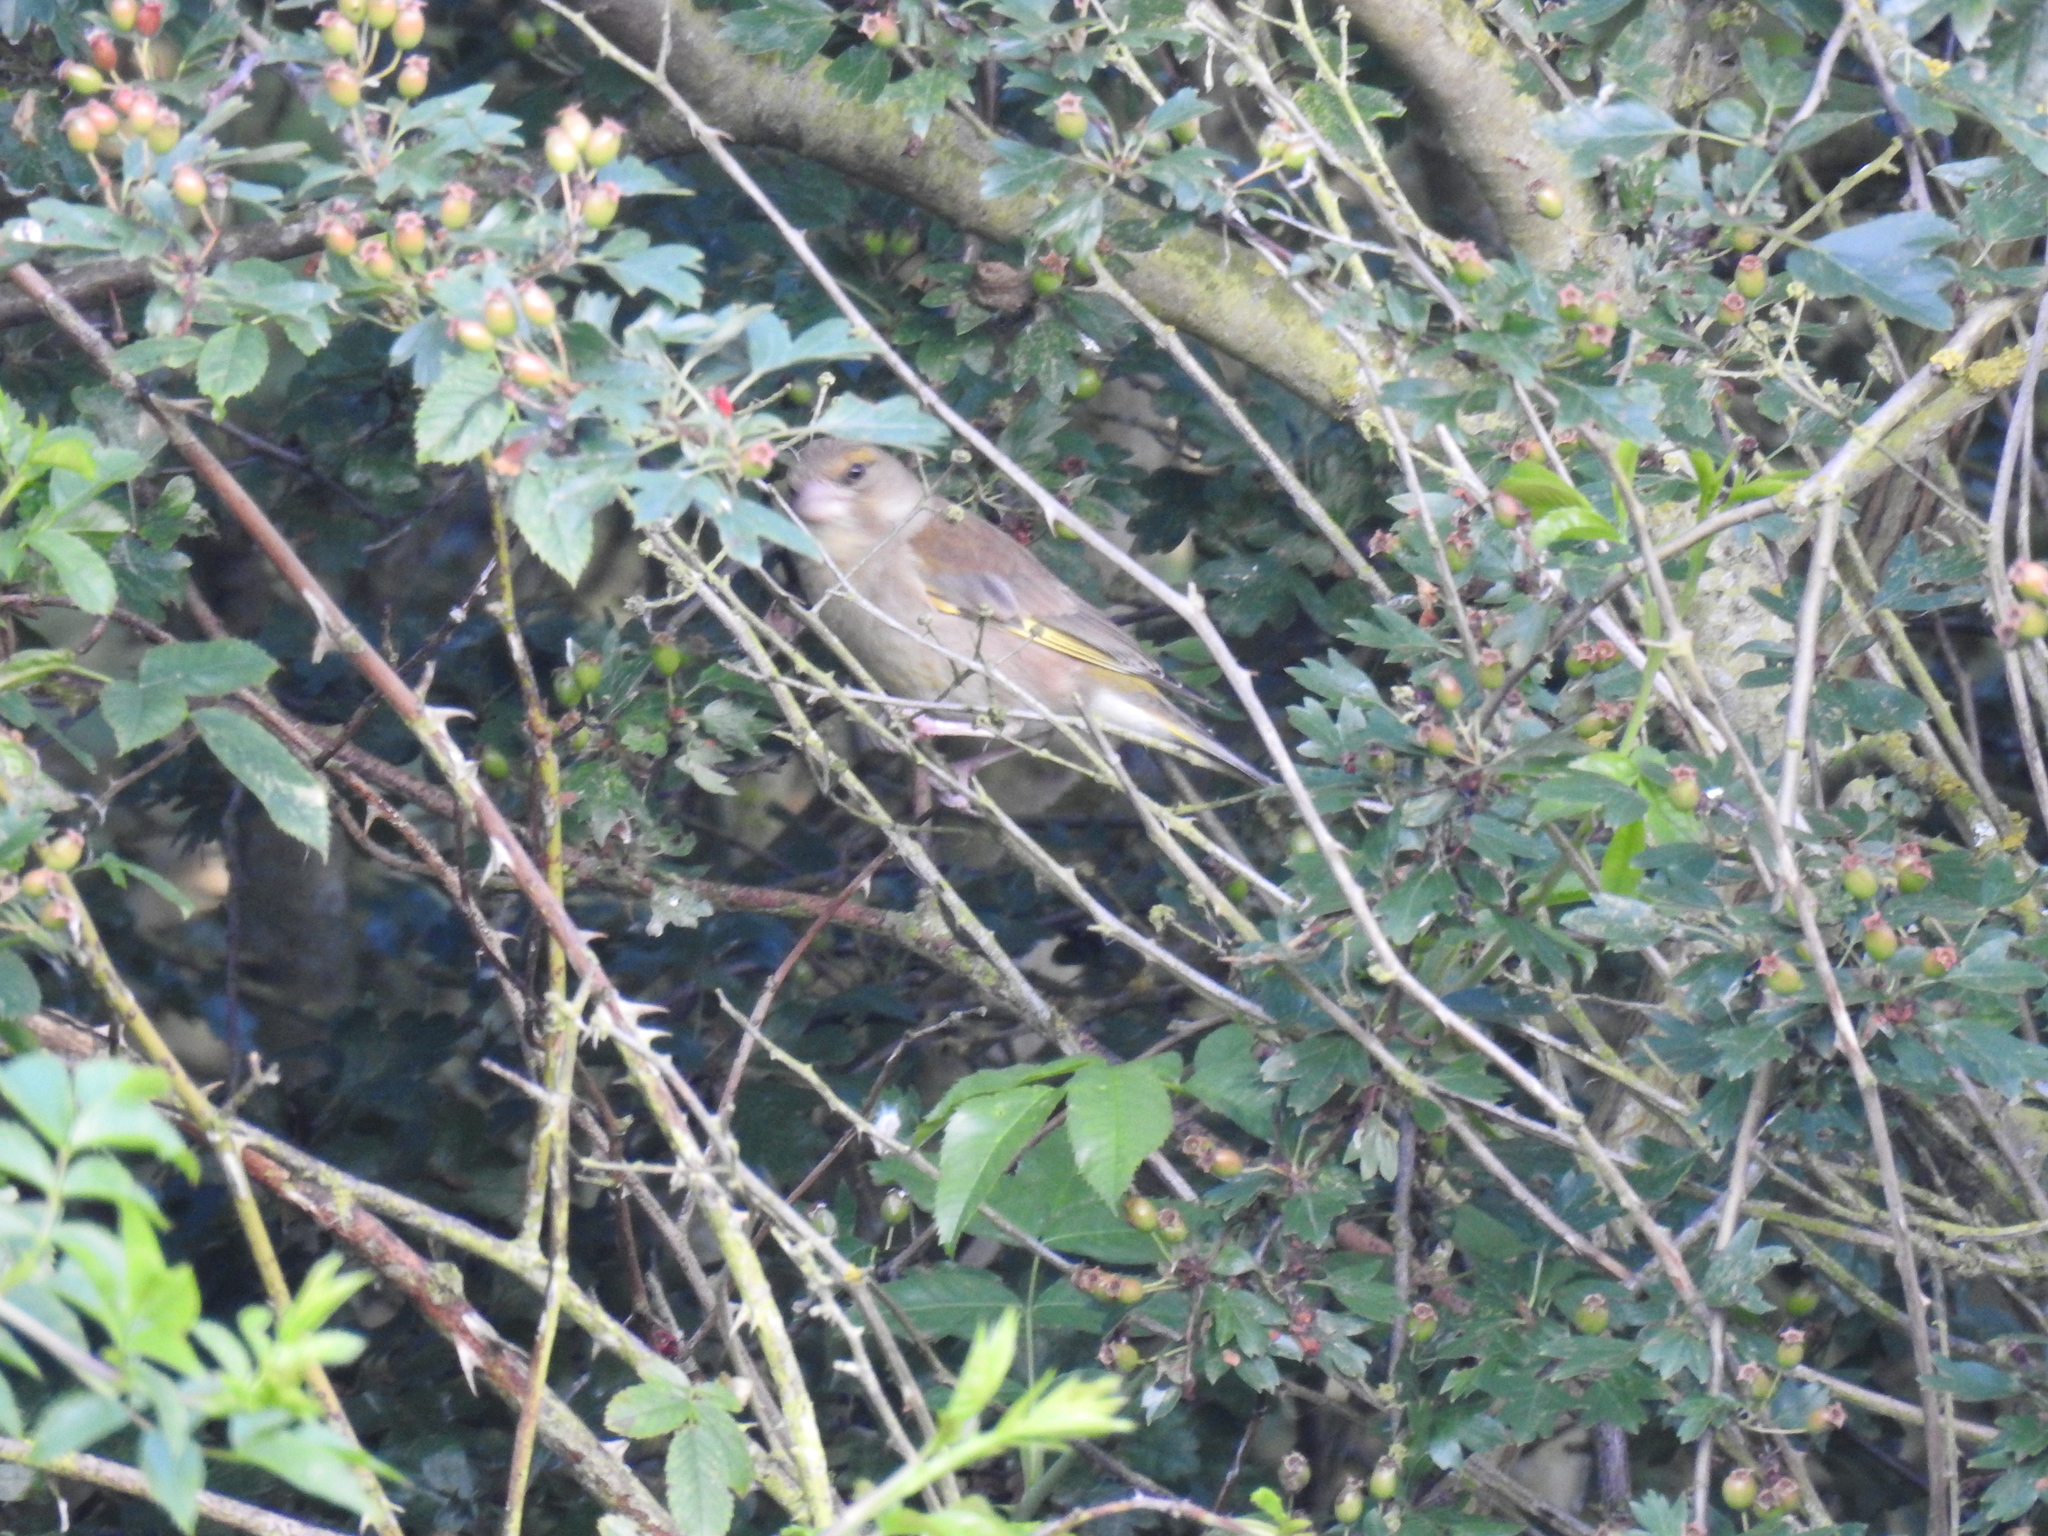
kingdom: Plantae
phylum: Tracheophyta
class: Liliopsida
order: Poales
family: Poaceae
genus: Chloris
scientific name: Chloris chloris
